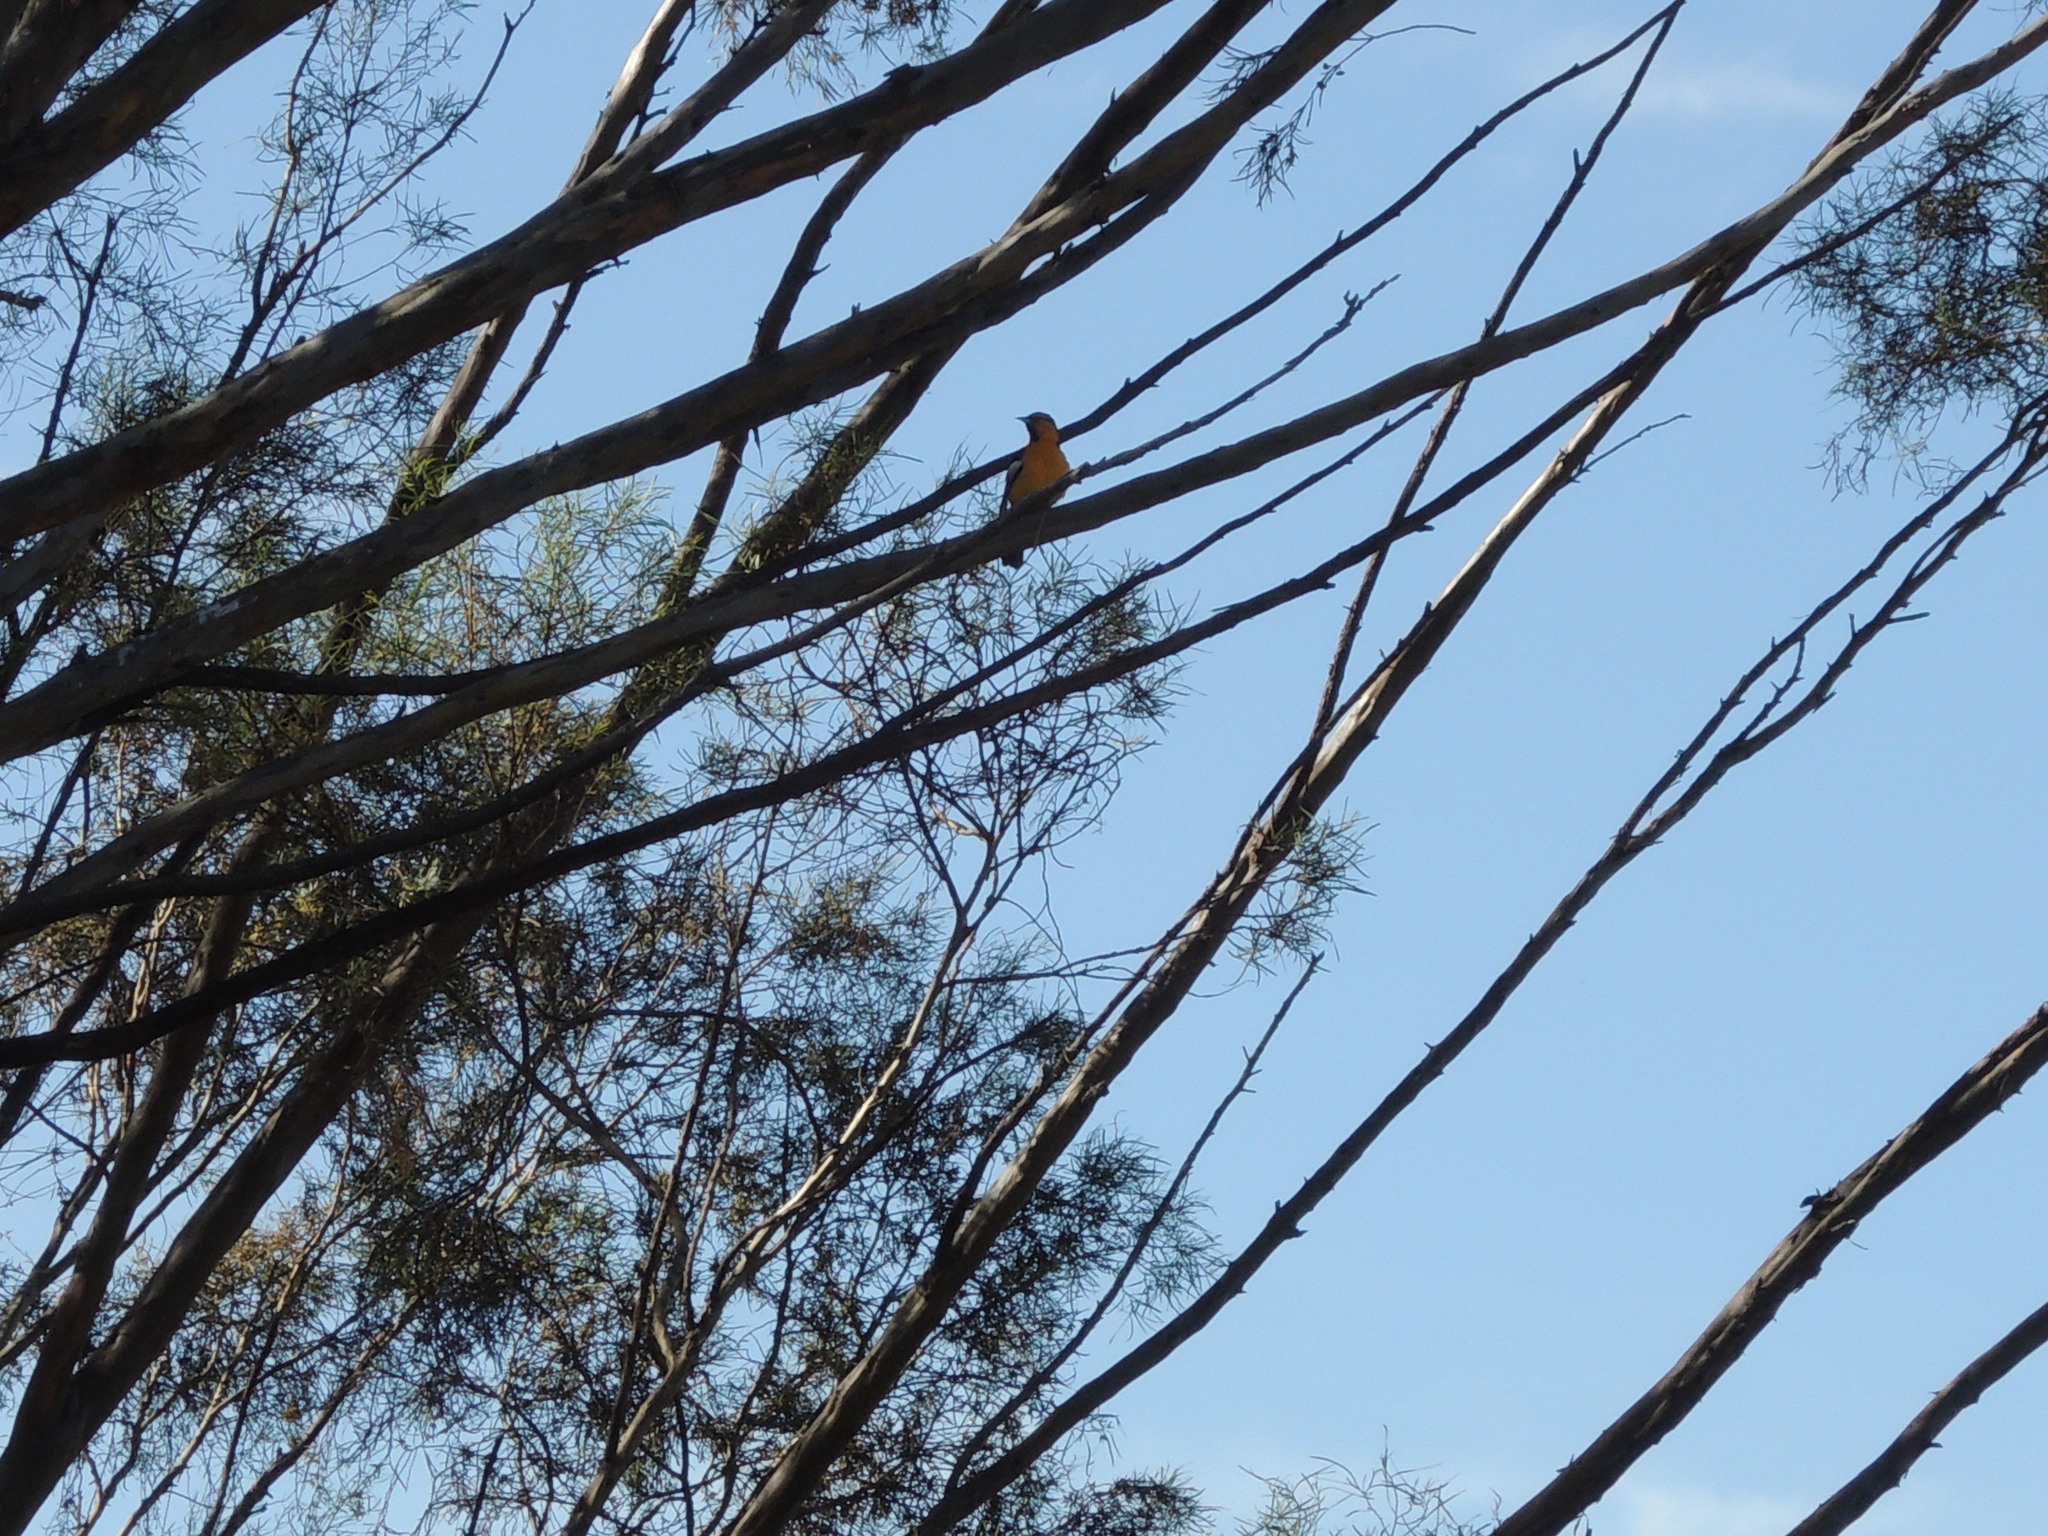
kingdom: Animalia
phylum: Chordata
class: Aves
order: Passeriformes
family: Icteridae
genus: Icterus
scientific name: Icterus bullockii
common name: Bullock's oriole
